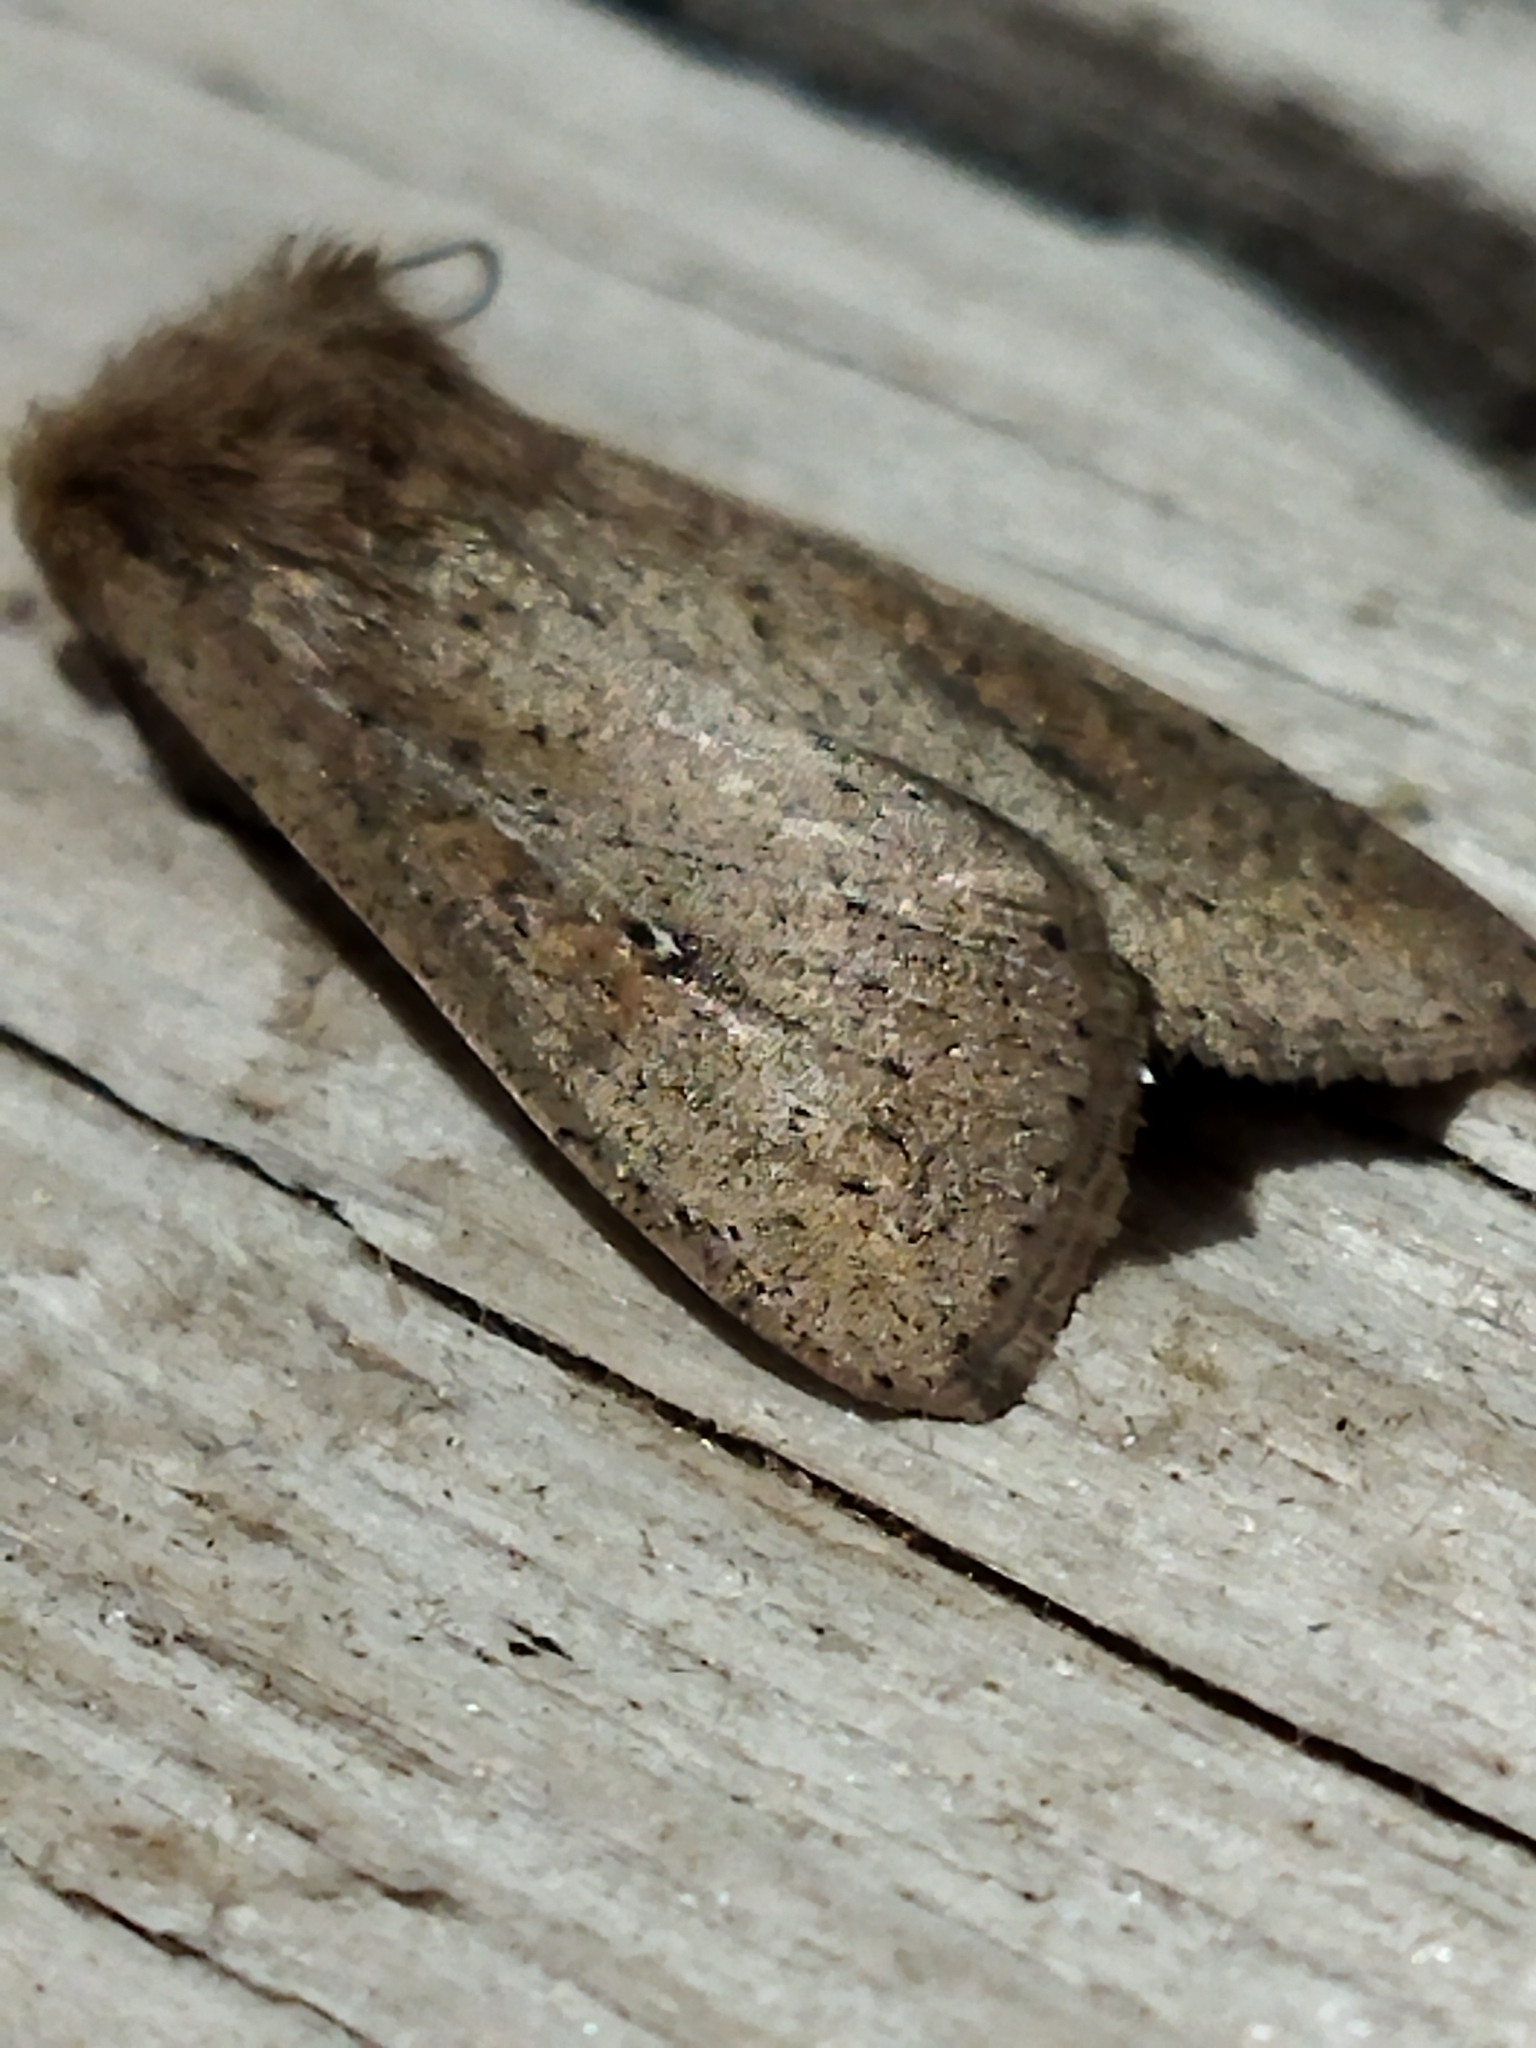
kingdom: Animalia
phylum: Arthropoda
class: Insecta
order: Lepidoptera
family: Noctuidae
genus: Mythimna
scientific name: Mythimna unipuncta
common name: White-speck
